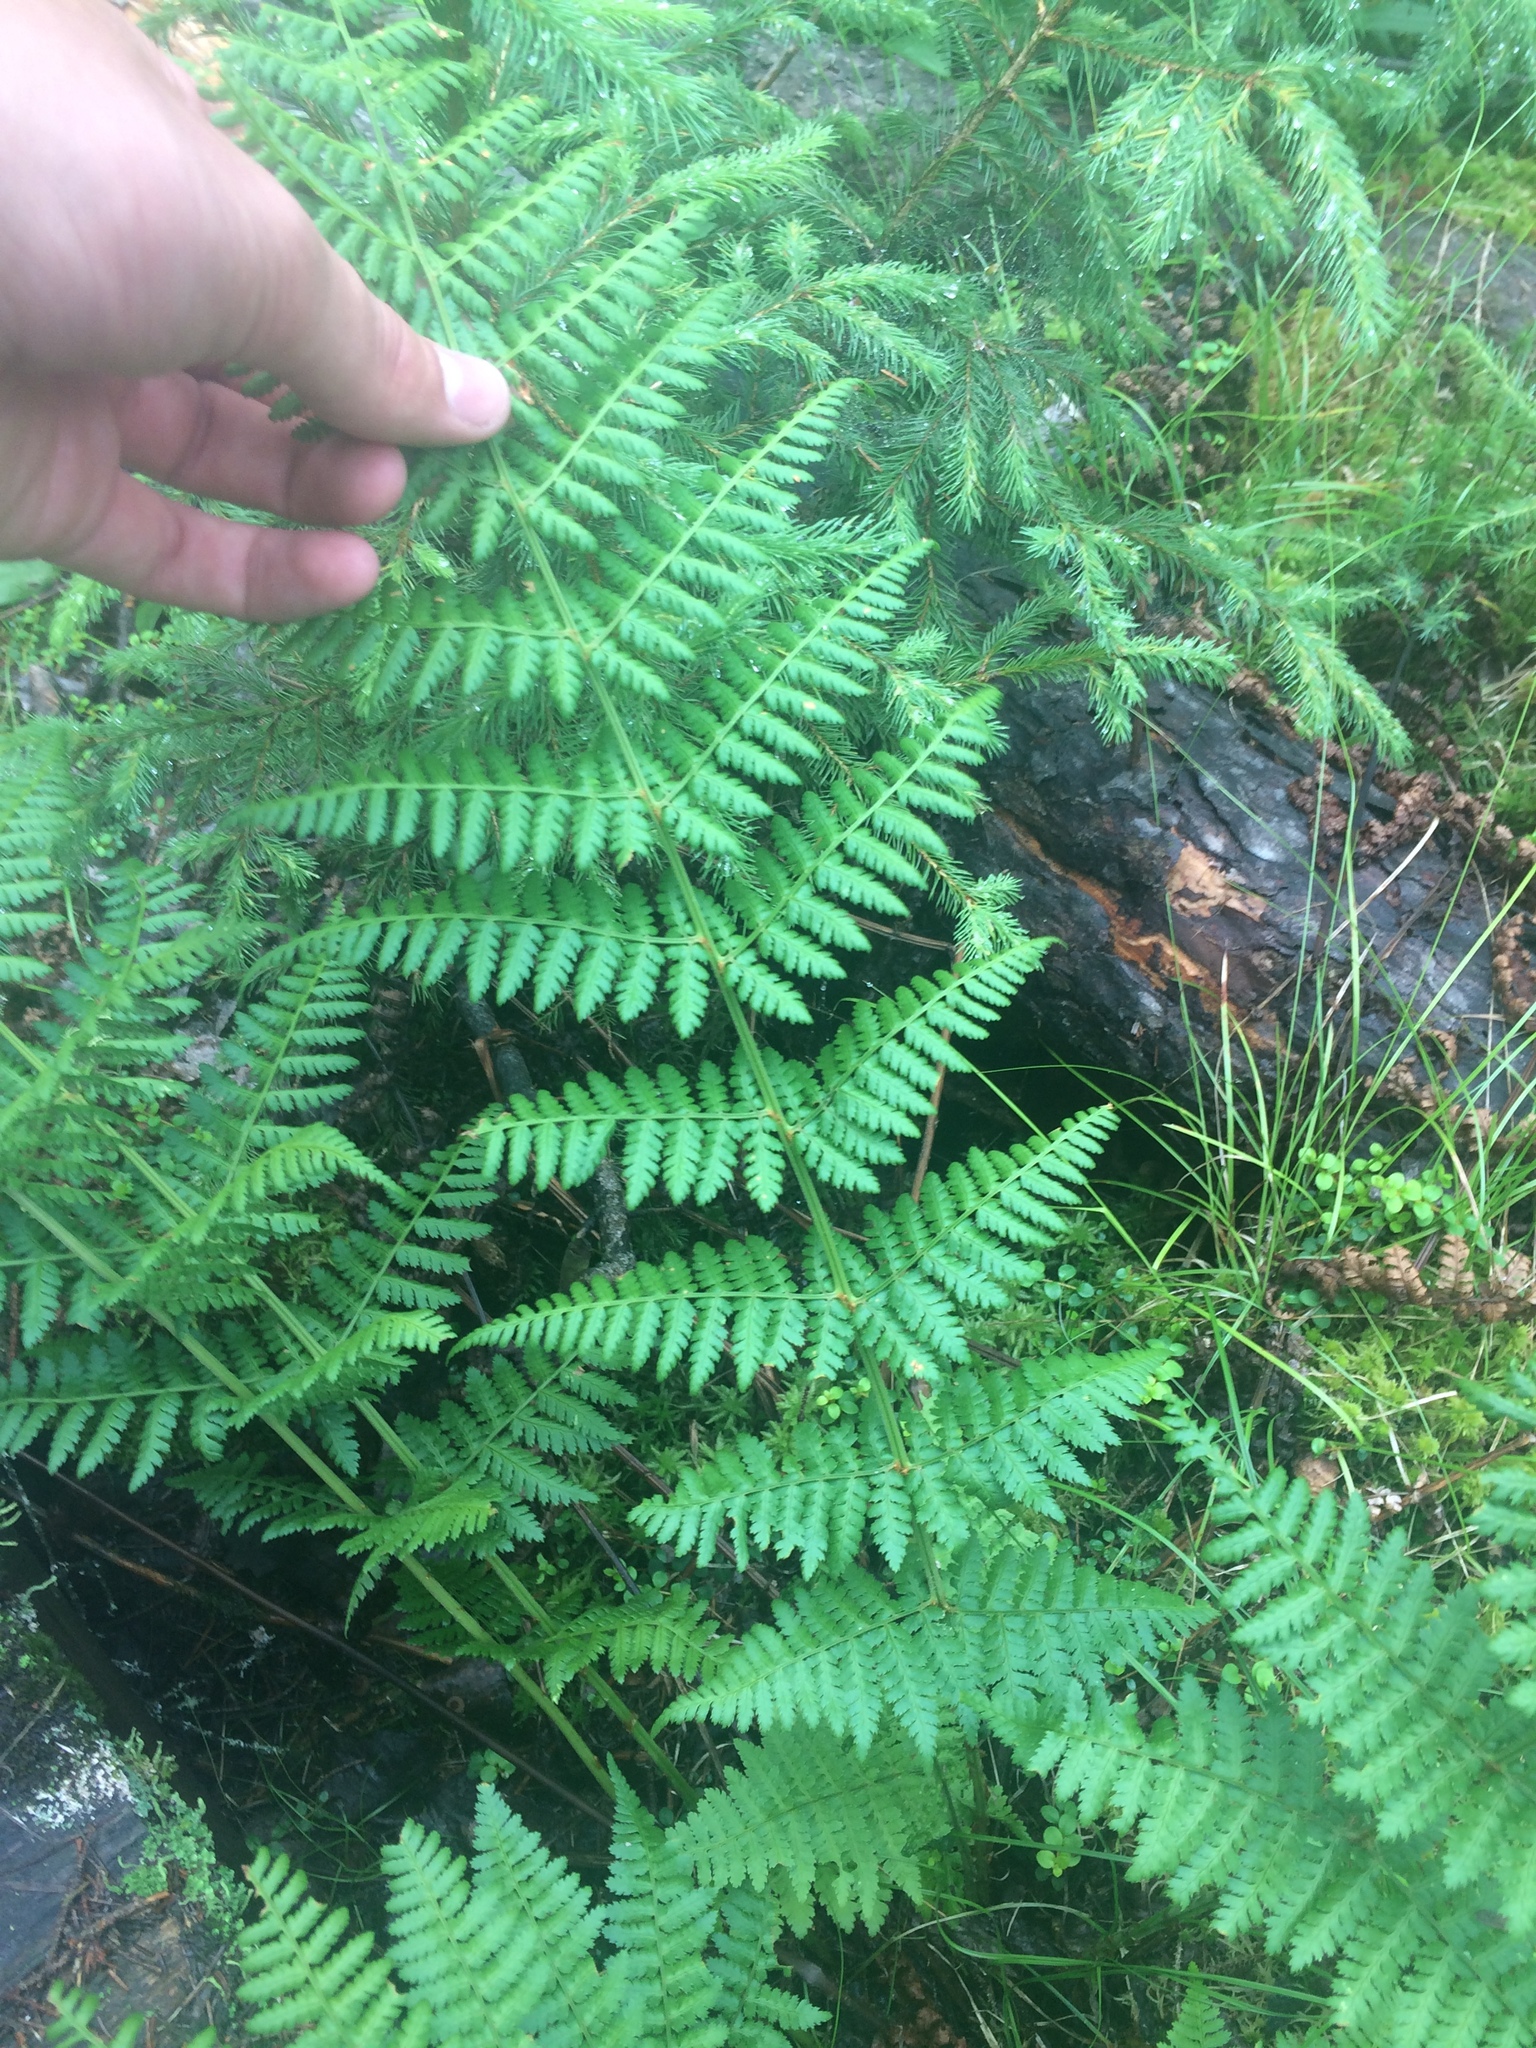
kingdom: Plantae
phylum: Tracheophyta
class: Polypodiopsida
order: Polypodiales
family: Dryopteridaceae
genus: Dryopteris
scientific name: Dryopteris intermedia
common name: Evergreen wood fern
